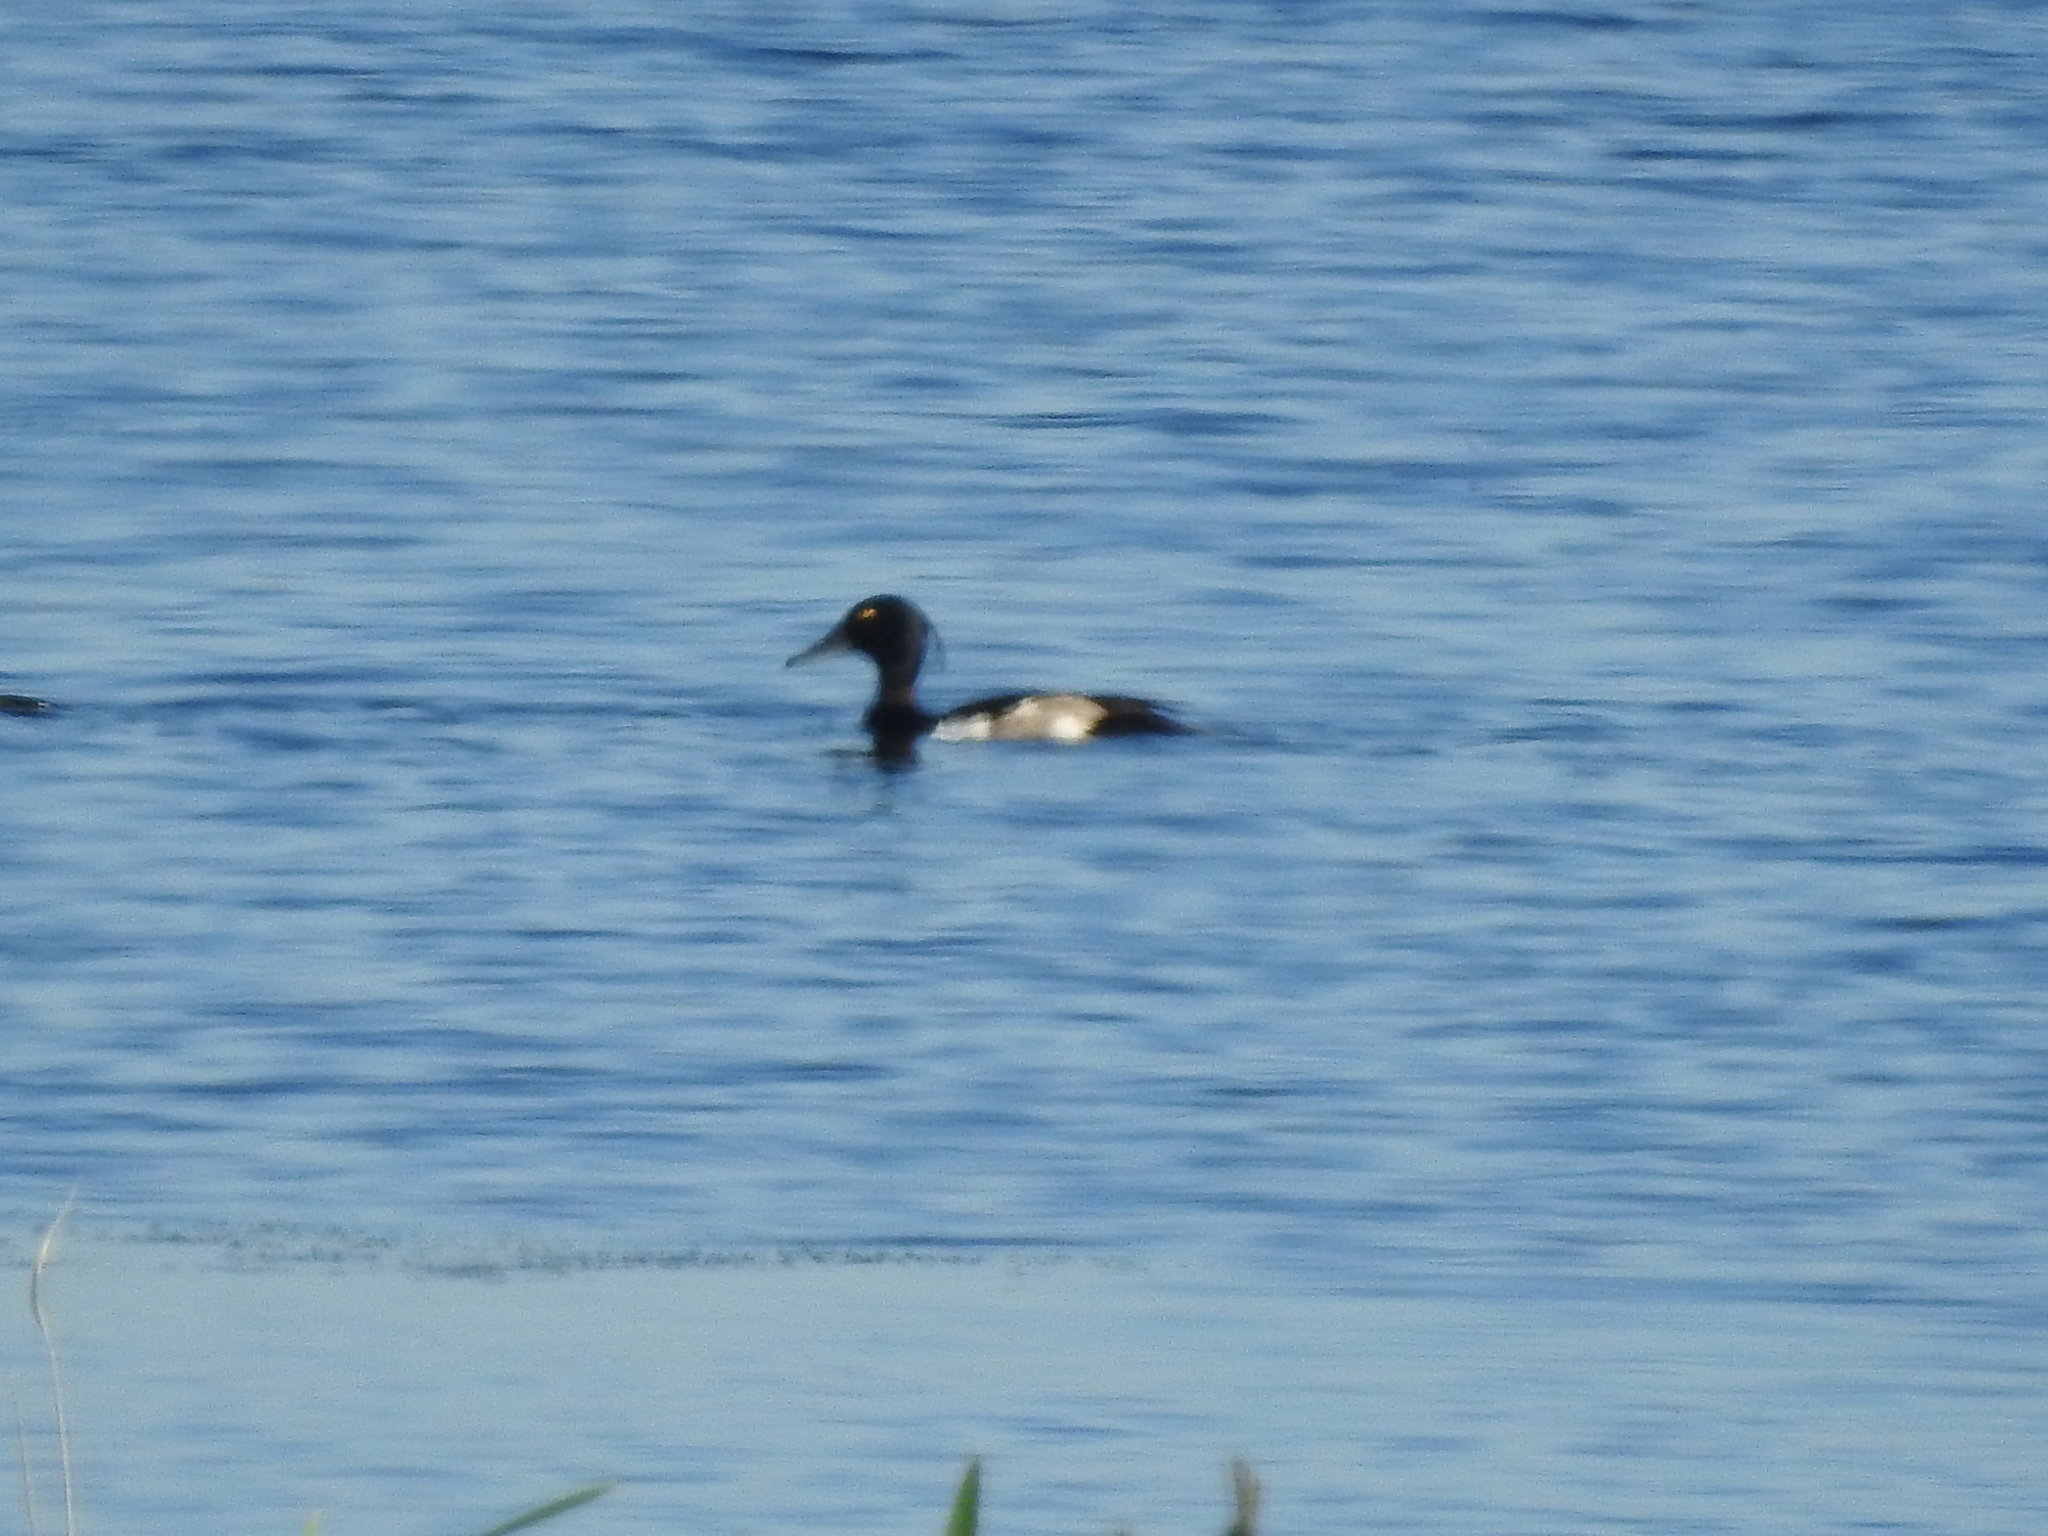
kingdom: Animalia
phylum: Chordata
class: Aves
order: Anseriformes
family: Anatidae
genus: Aythya
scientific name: Aythya fuligula
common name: Tufted duck
